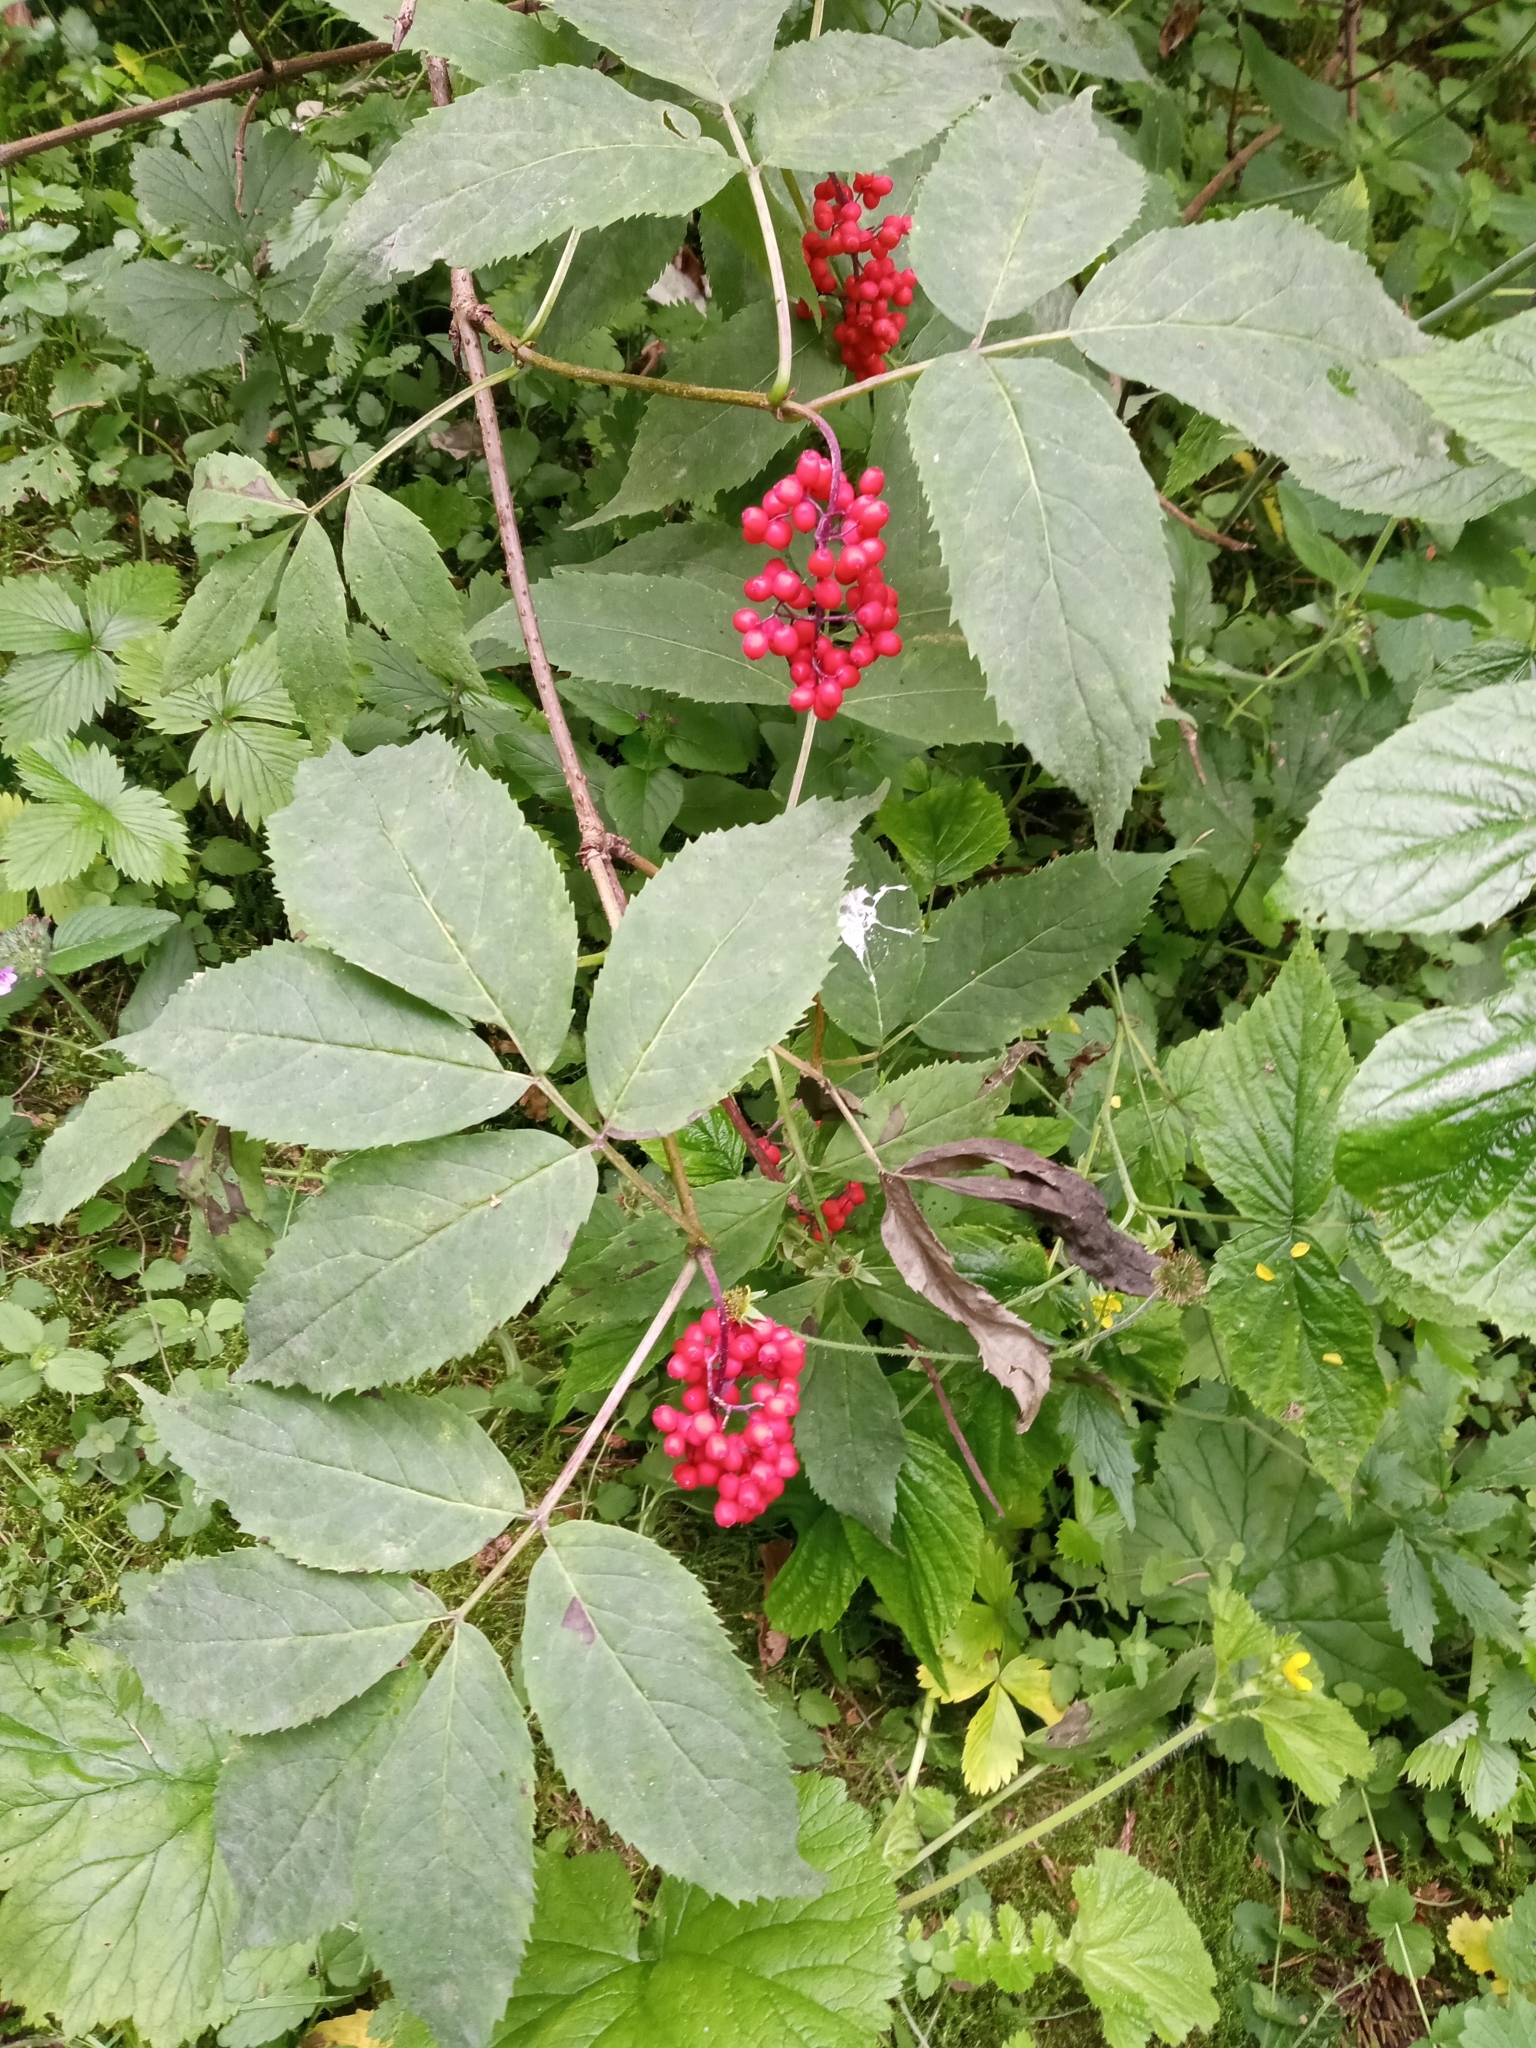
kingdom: Plantae
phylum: Tracheophyta
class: Magnoliopsida
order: Dipsacales
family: Viburnaceae
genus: Sambucus
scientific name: Sambucus racemosa
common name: Red-berried elder
